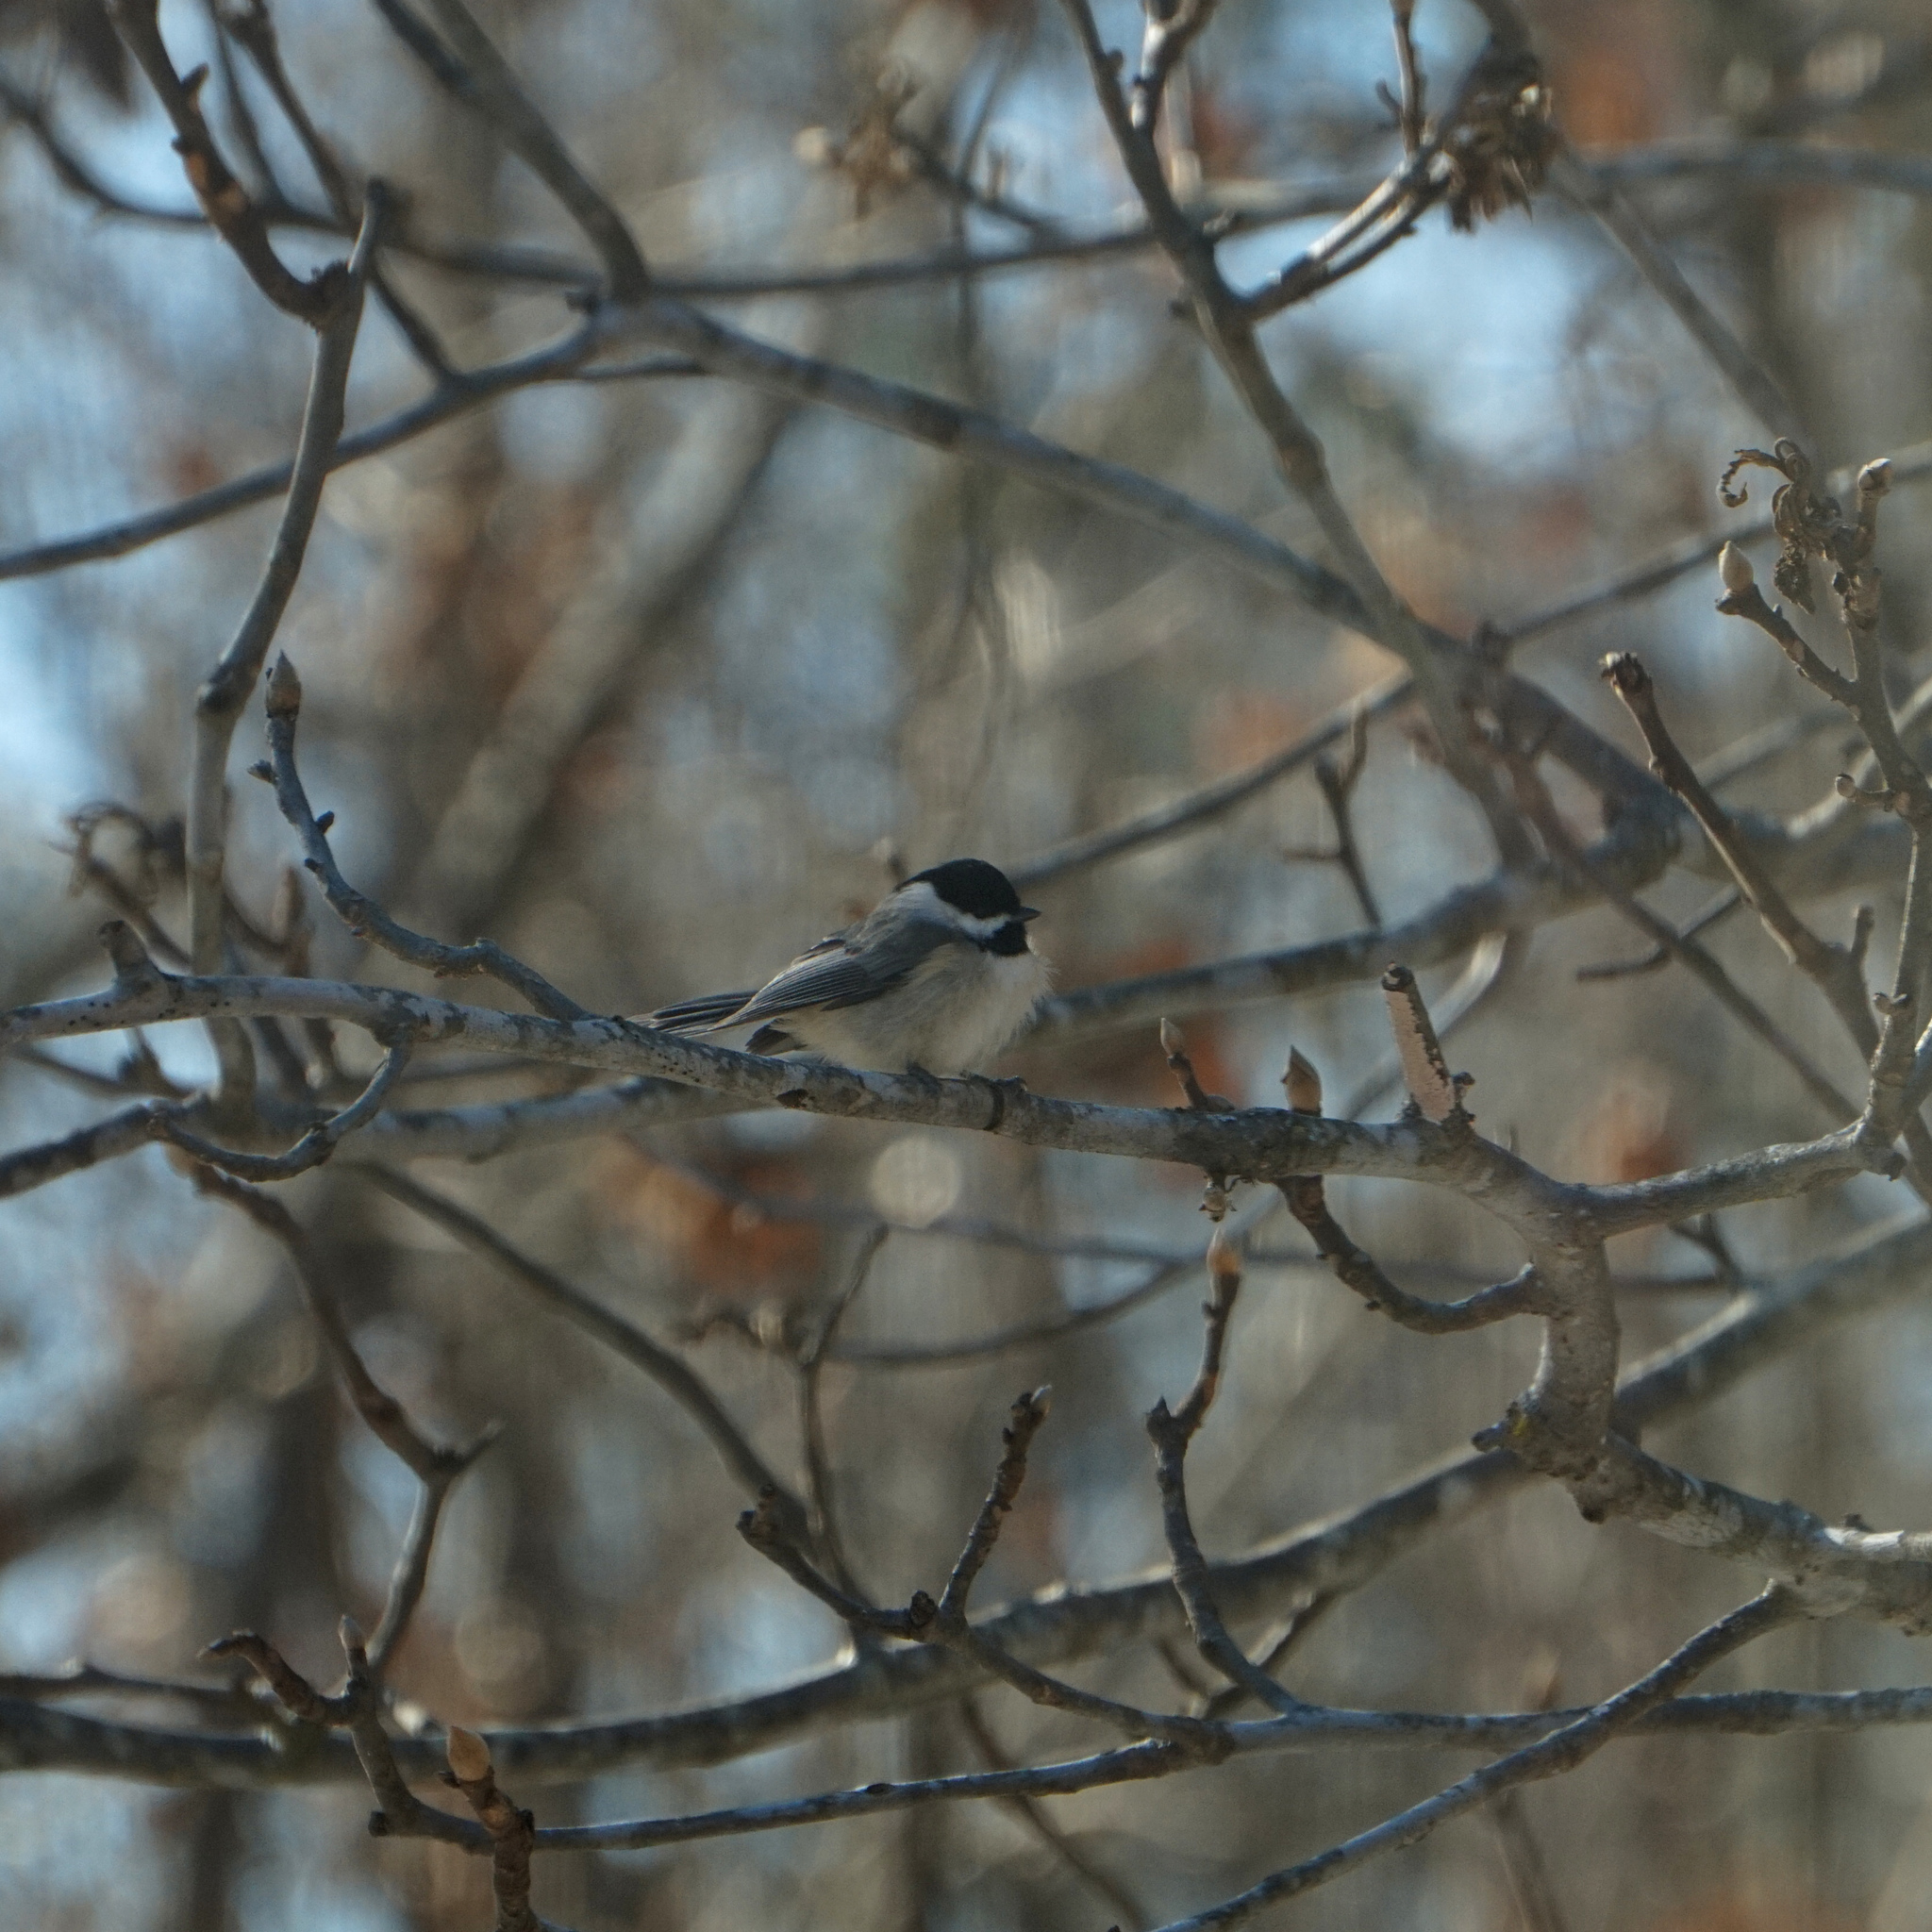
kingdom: Animalia
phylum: Chordata
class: Aves
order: Passeriformes
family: Paridae
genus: Poecile
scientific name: Poecile carolinensis
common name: Carolina chickadee
